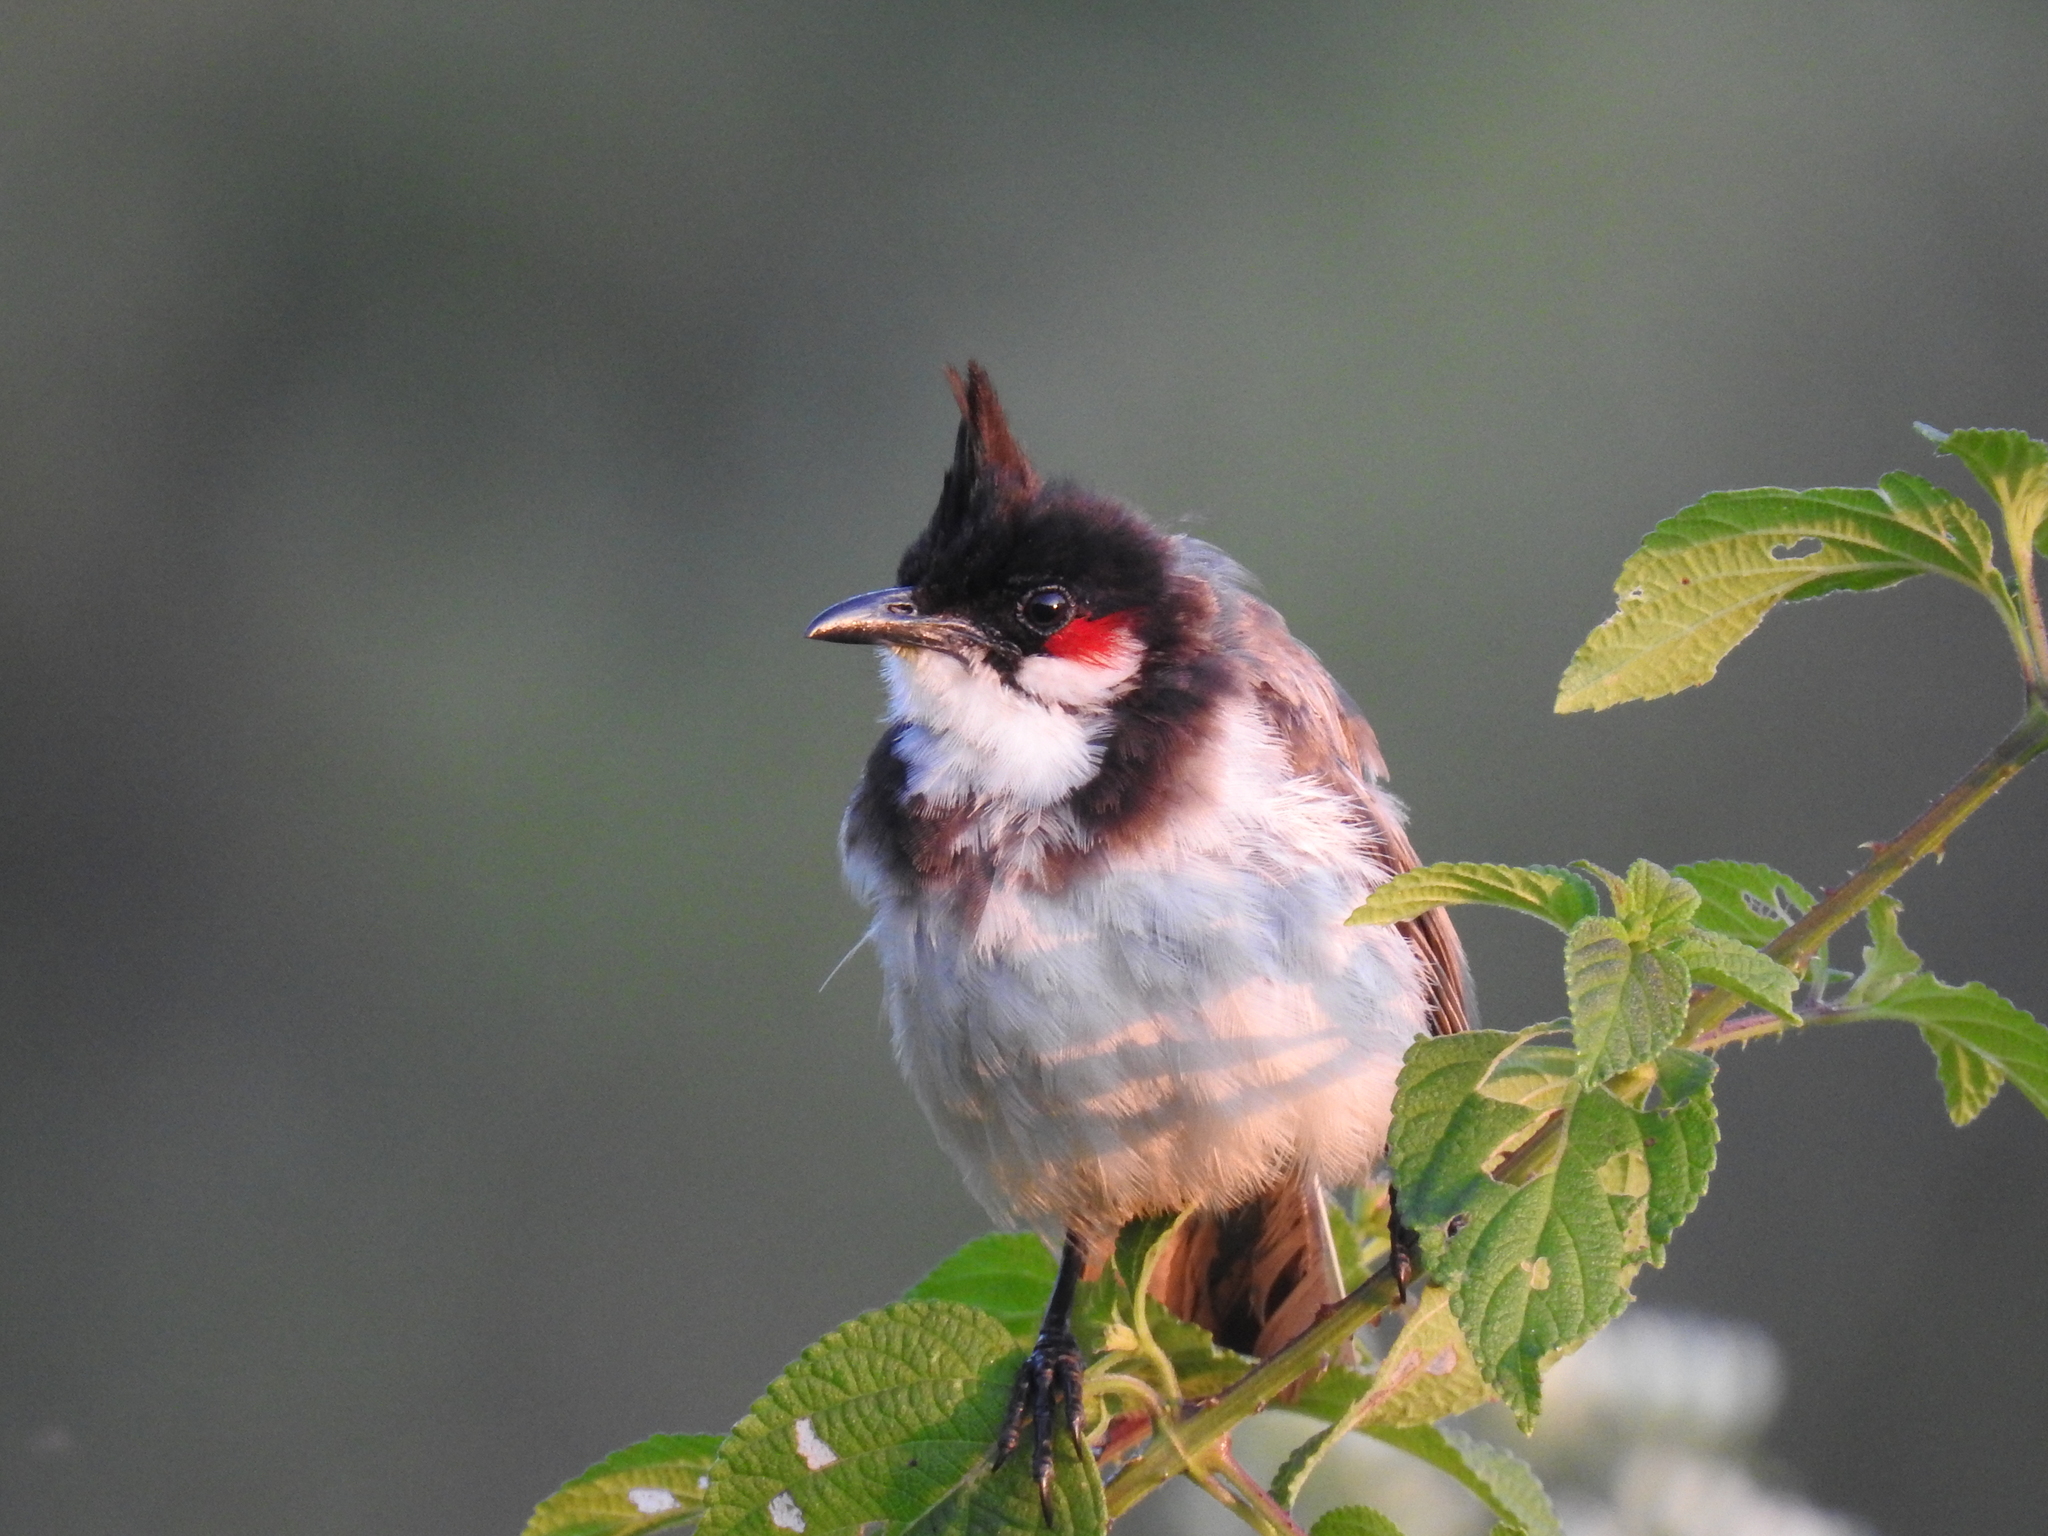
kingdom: Animalia
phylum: Chordata
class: Aves
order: Passeriformes
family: Pycnonotidae
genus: Pycnonotus
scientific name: Pycnonotus jocosus
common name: Red-whiskered bulbul
